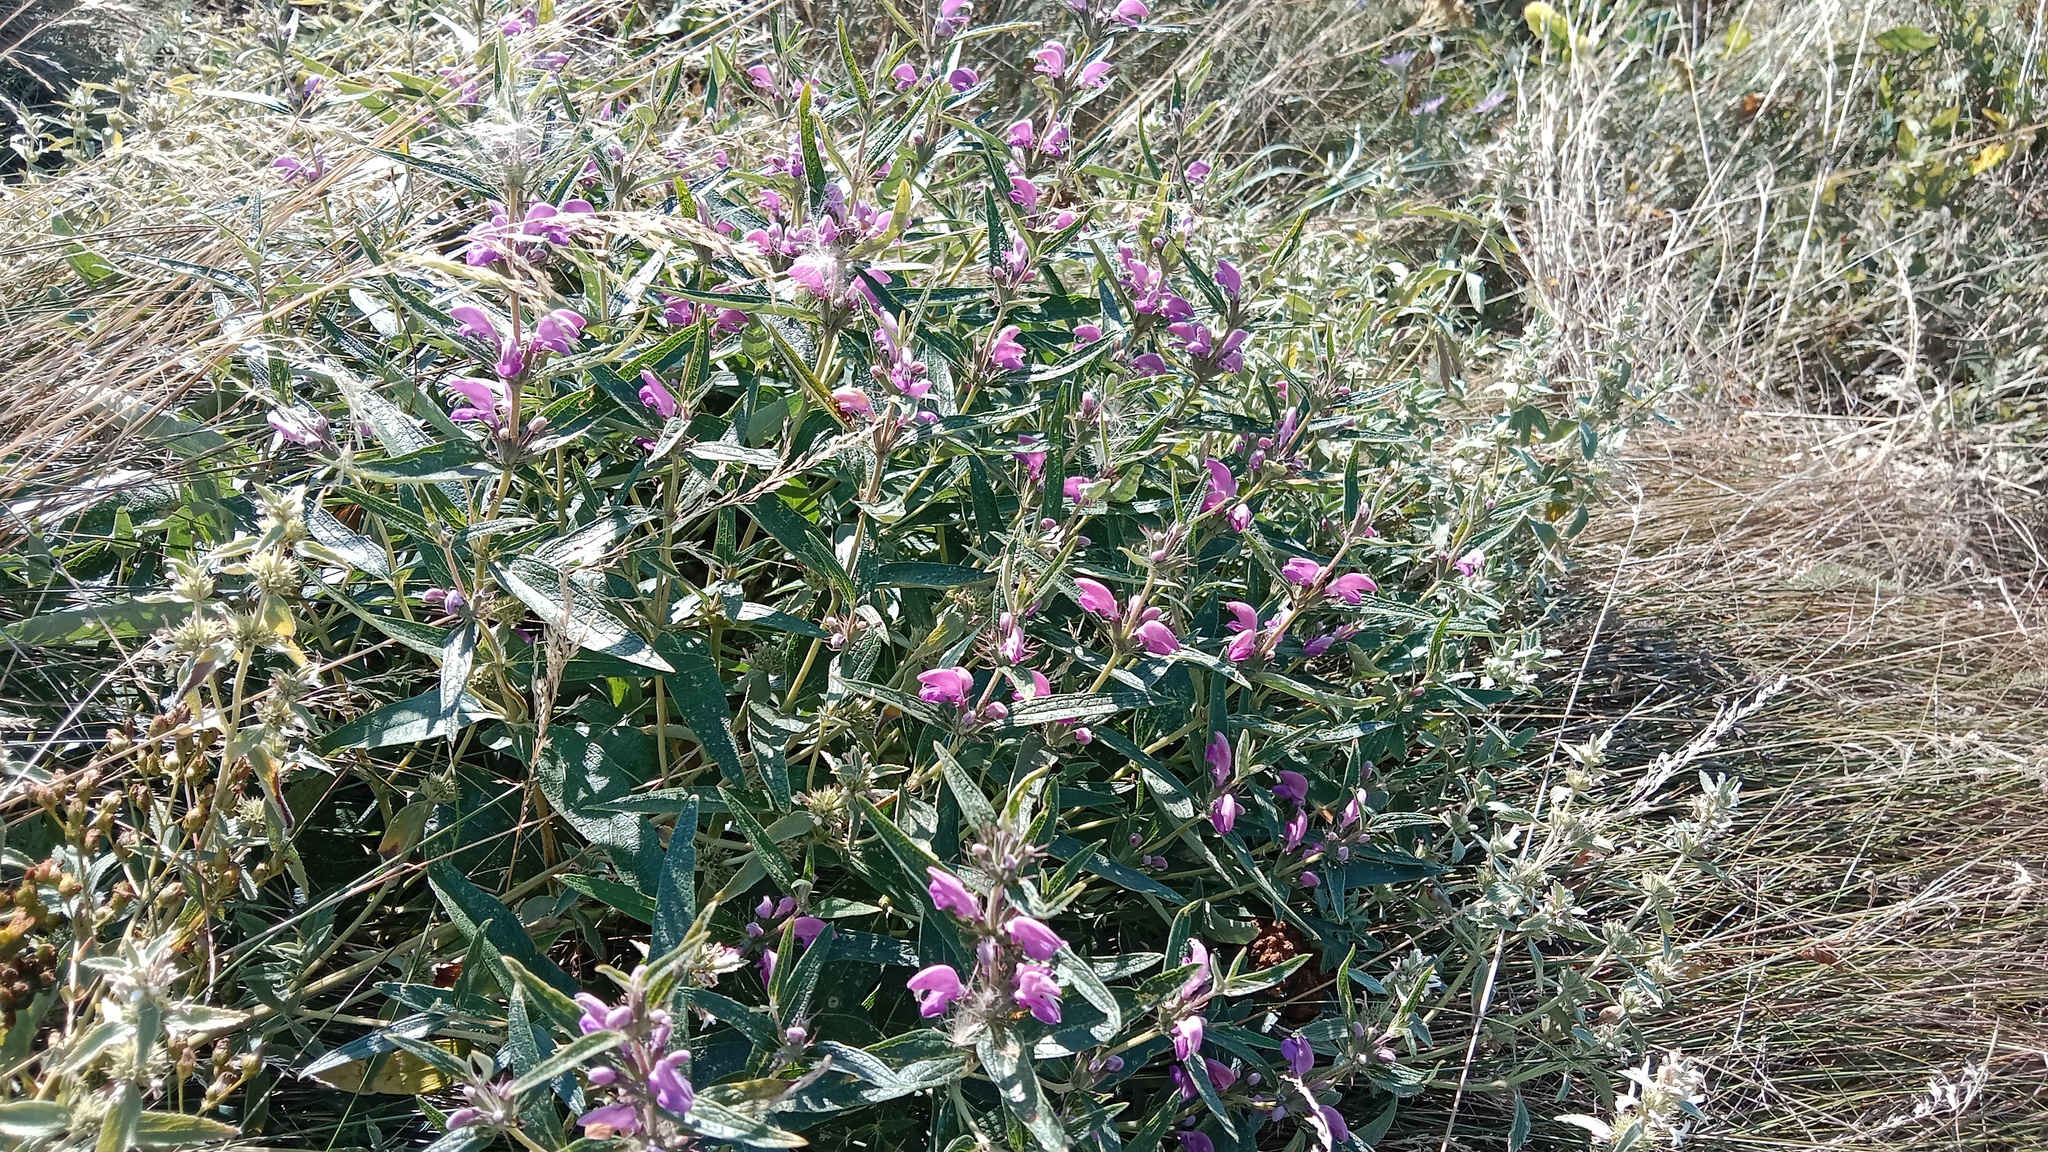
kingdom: Plantae
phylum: Tracheophyta
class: Magnoliopsida
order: Lamiales
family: Lamiaceae
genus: Phlomis
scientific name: Phlomis herba-venti
